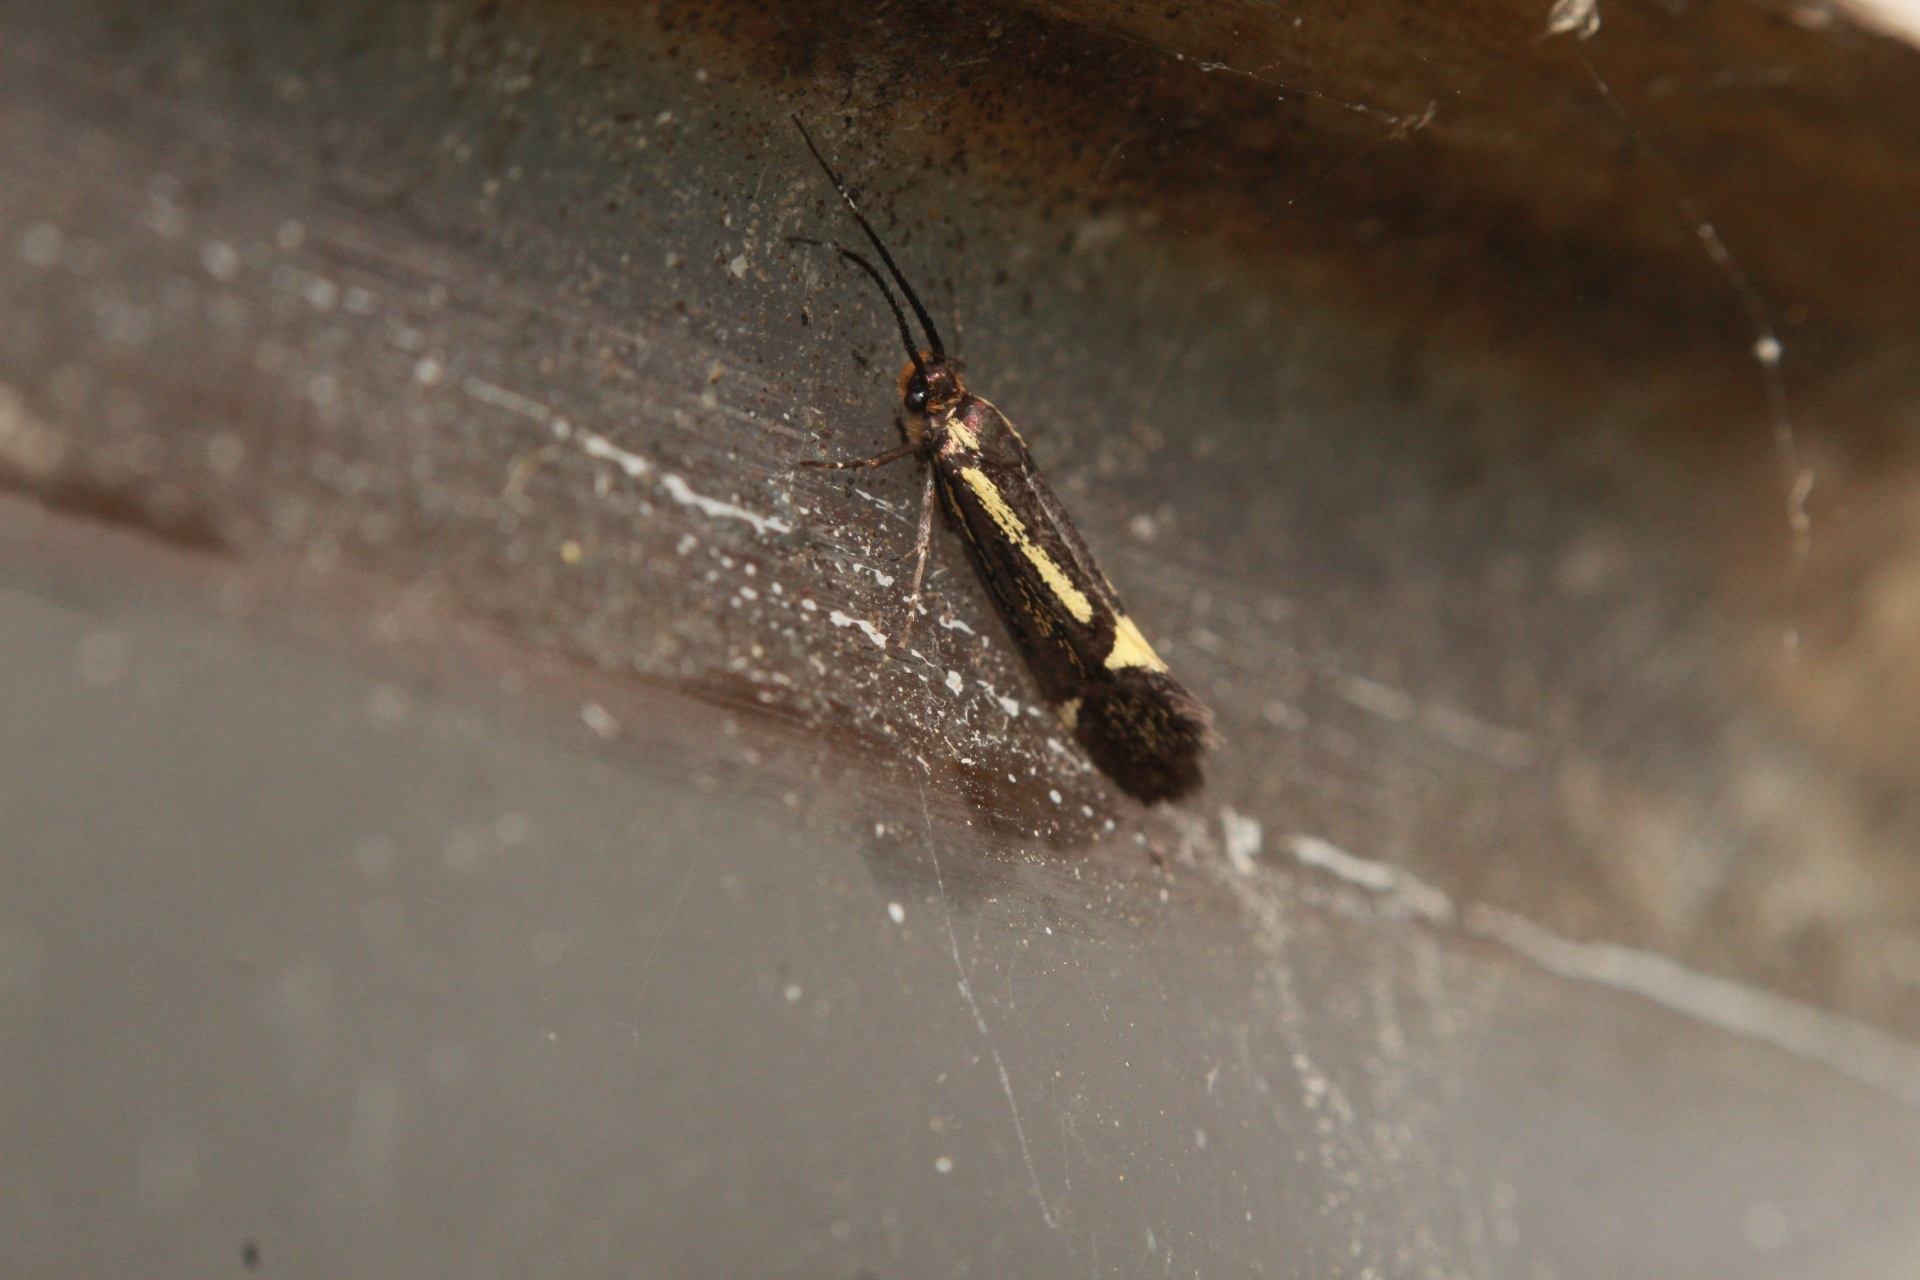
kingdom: Animalia
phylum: Arthropoda
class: Insecta
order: Lepidoptera
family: Oecophoridae
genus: Dafa
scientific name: Dafa Esperia sulphurella
